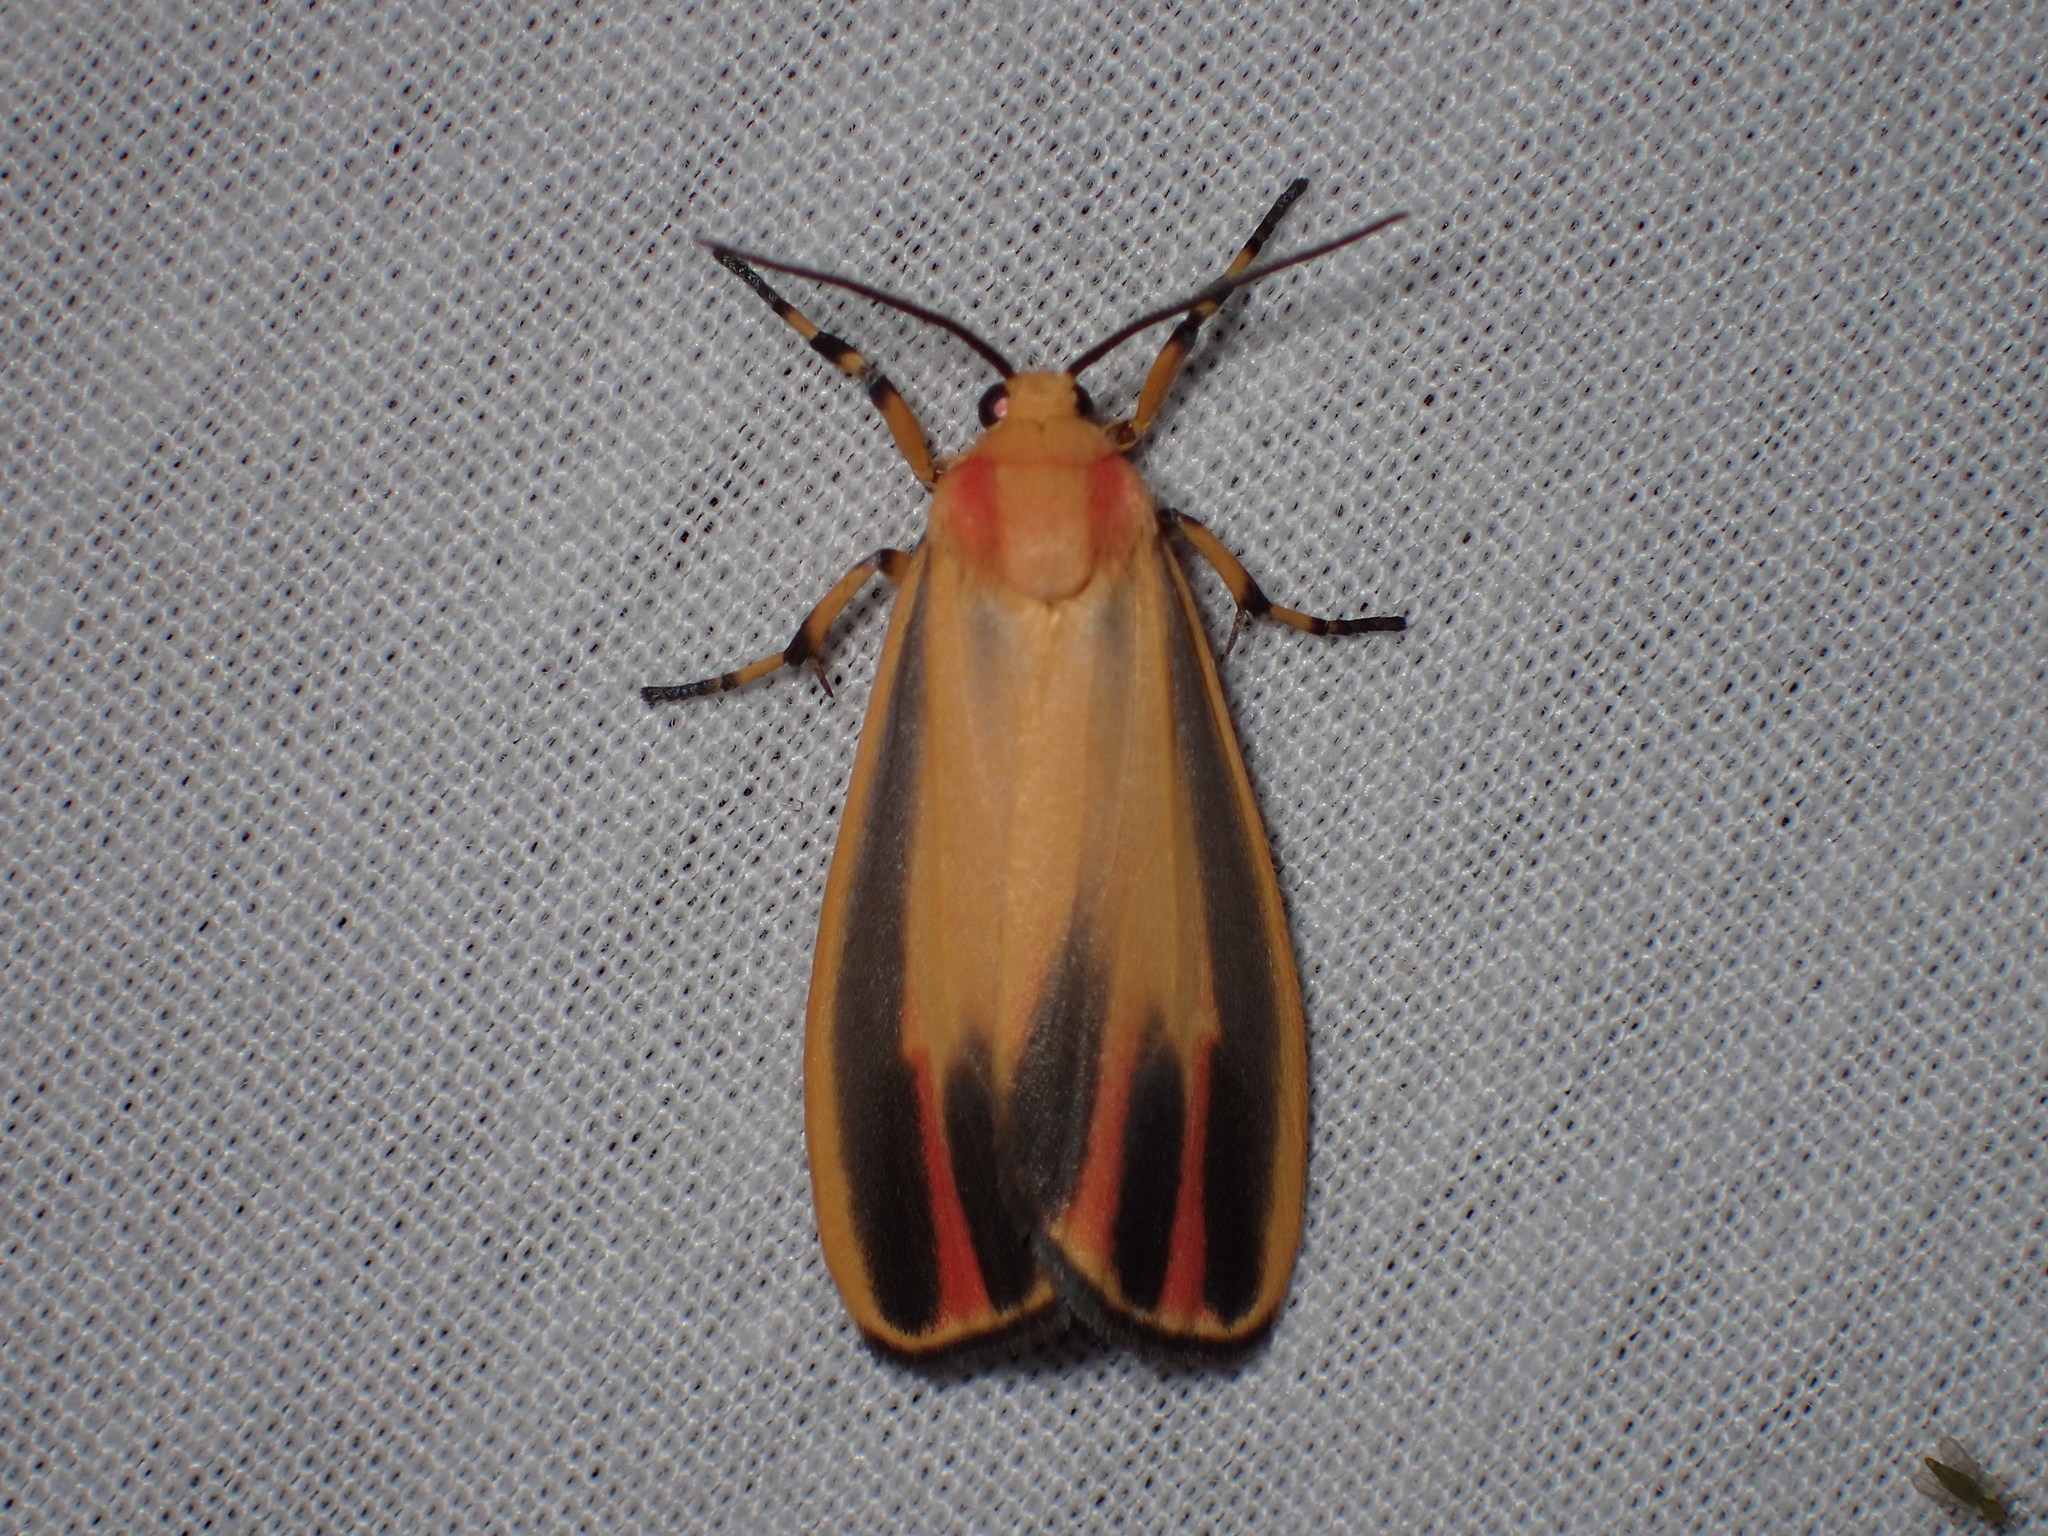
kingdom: Animalia
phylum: Arthropoda
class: Insecta
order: Lepidoptera
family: Erebidae
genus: Hypoprepia
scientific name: Hypoprepia fucosa
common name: Painted lichen moth
